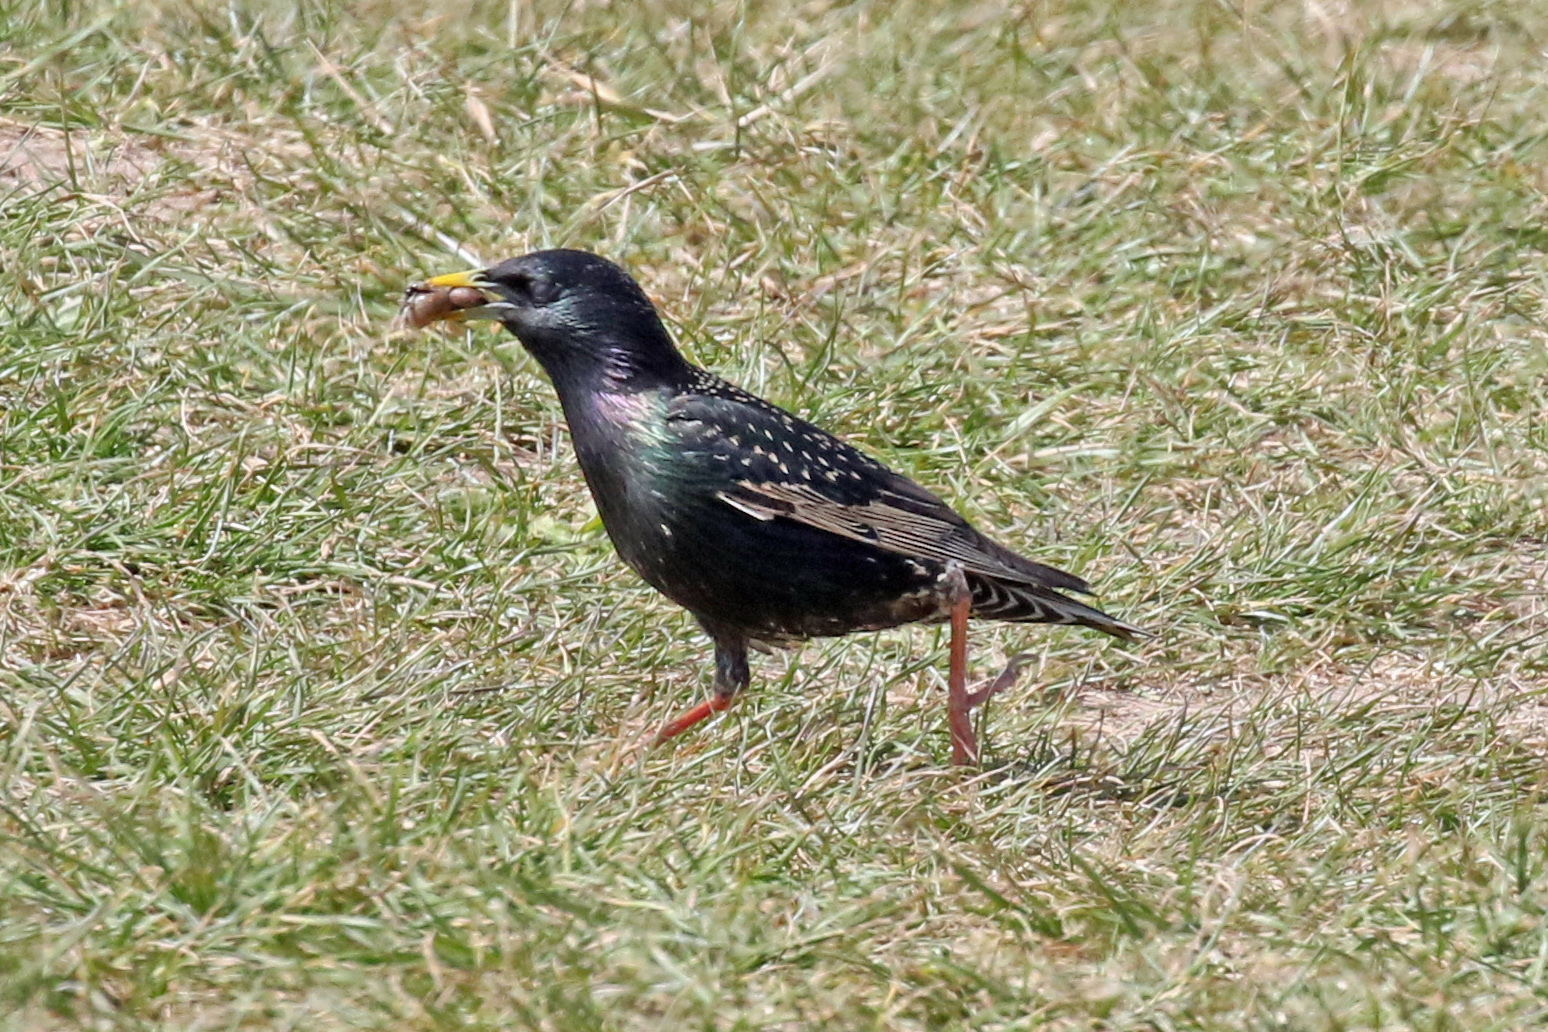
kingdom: Animalia
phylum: Chordata
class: Aves
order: Passeriformes
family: Sturnidae
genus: Sturnus
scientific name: Sturnus vulgaris
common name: Common starling
